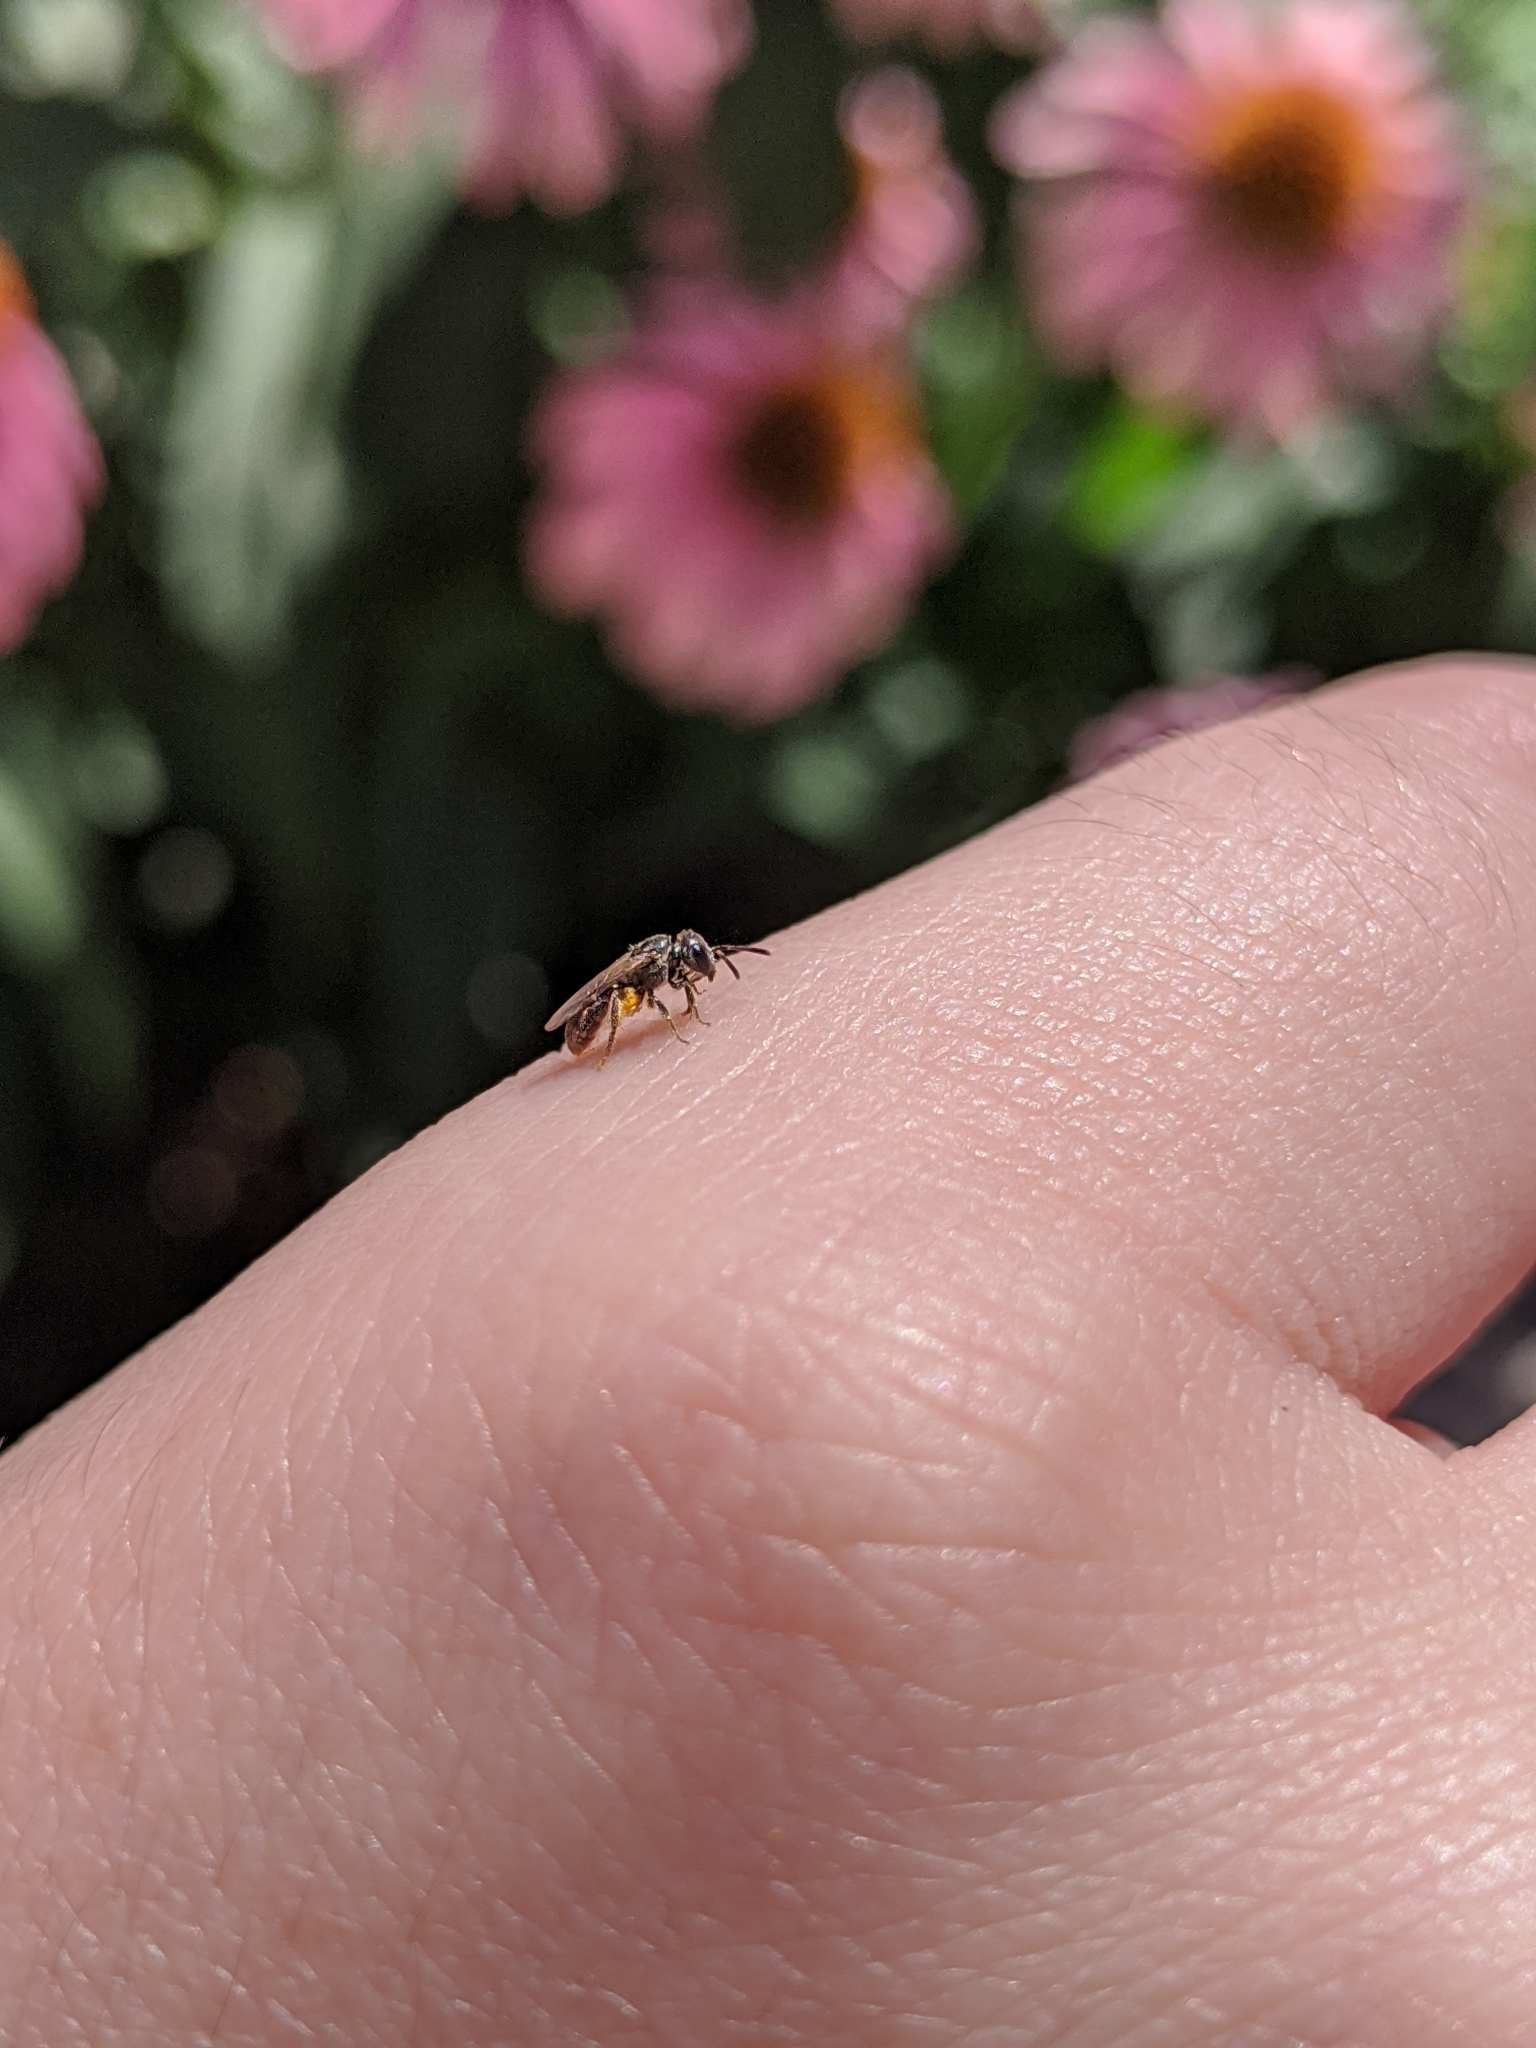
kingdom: Animalia
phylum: Arthropoda
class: Insecta
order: Hymenoptera
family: Halictidae
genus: Dialictus
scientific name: Dialictus
